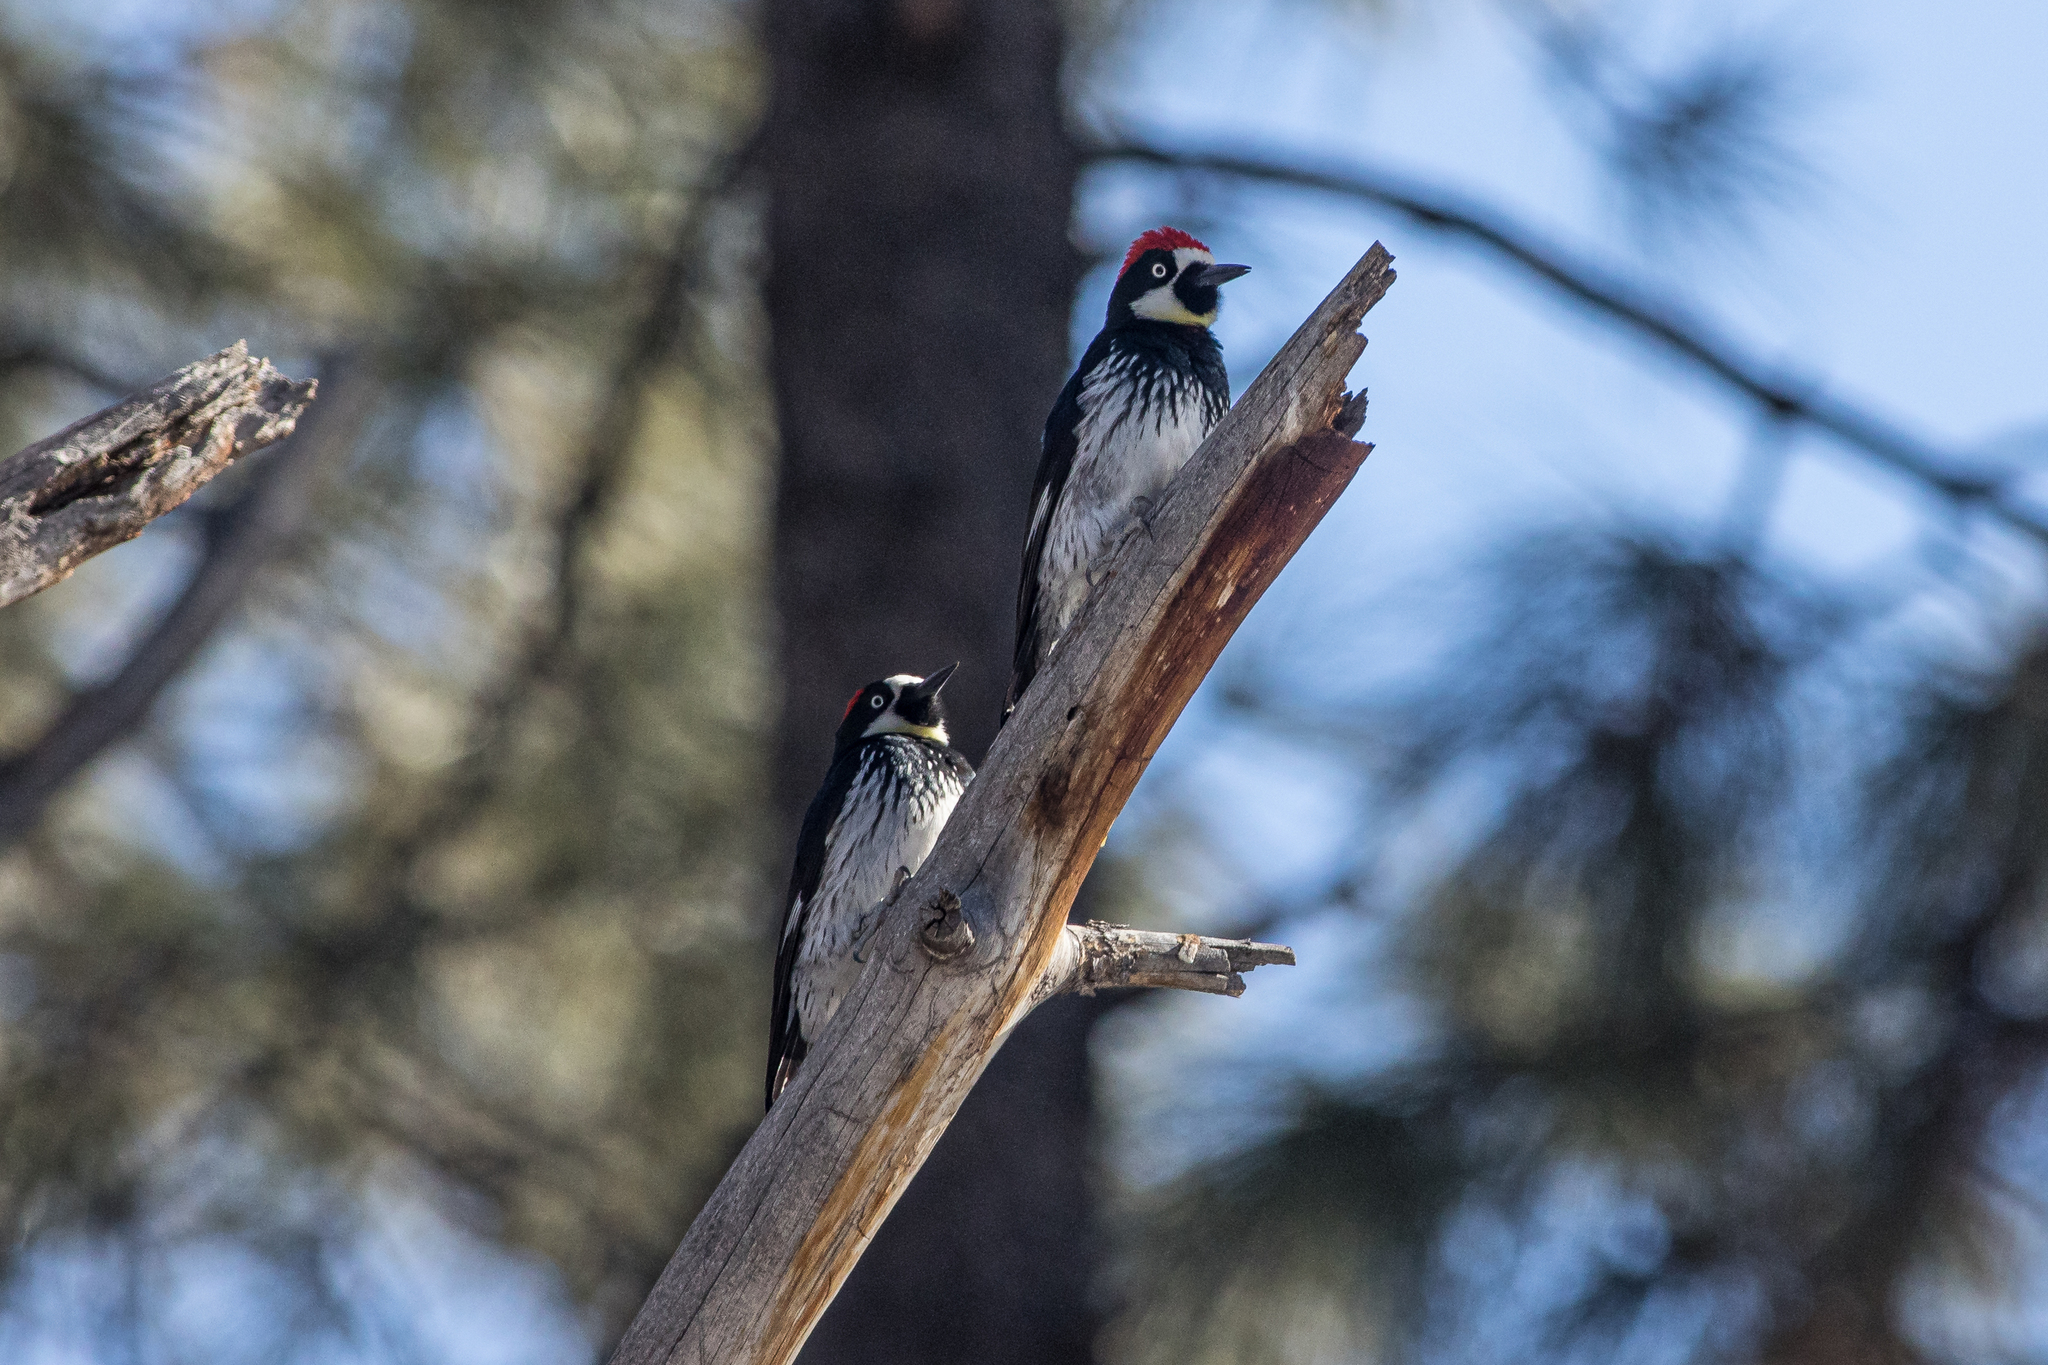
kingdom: Animalia
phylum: Chordata
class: Aves
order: Piciformes
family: Picidae
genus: Melanerpes
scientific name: Melanerpes formicivorus
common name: Acorn woodpecker
